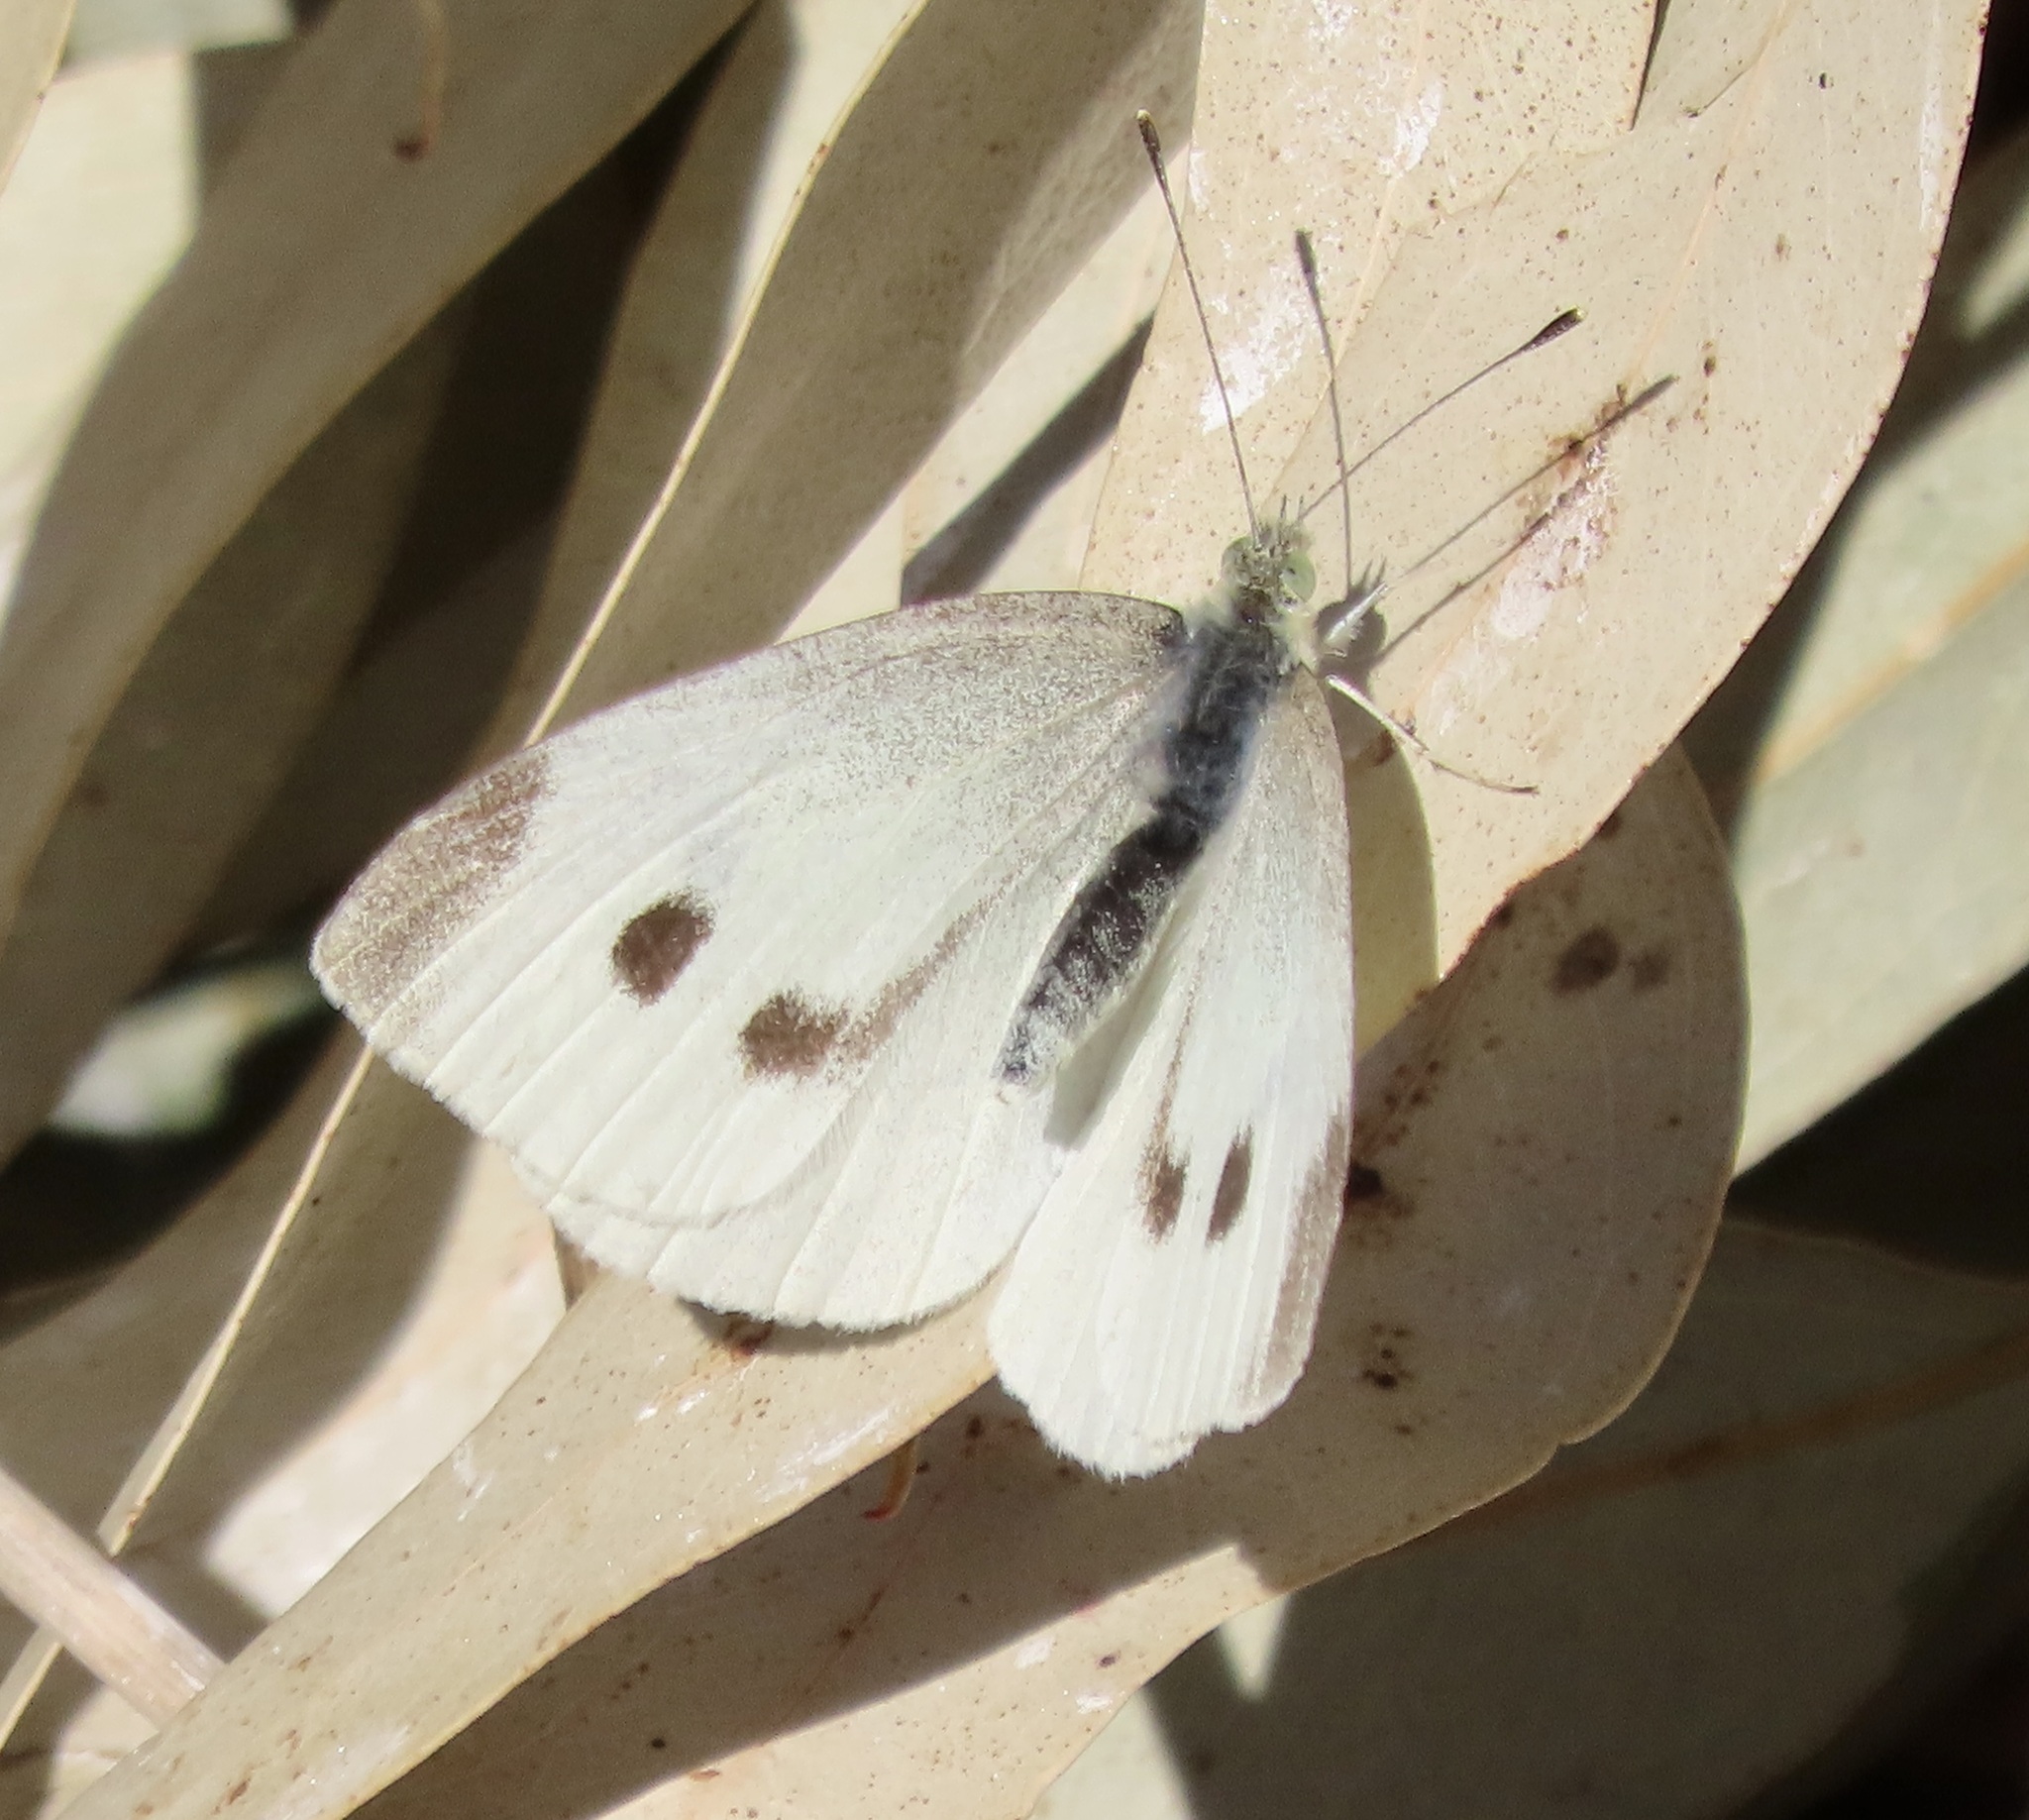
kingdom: Animalia
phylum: Arthropoda
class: Insecta
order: Lepidoptera
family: Pieridae
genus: Pieris
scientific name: Pieris rapae
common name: Small white
